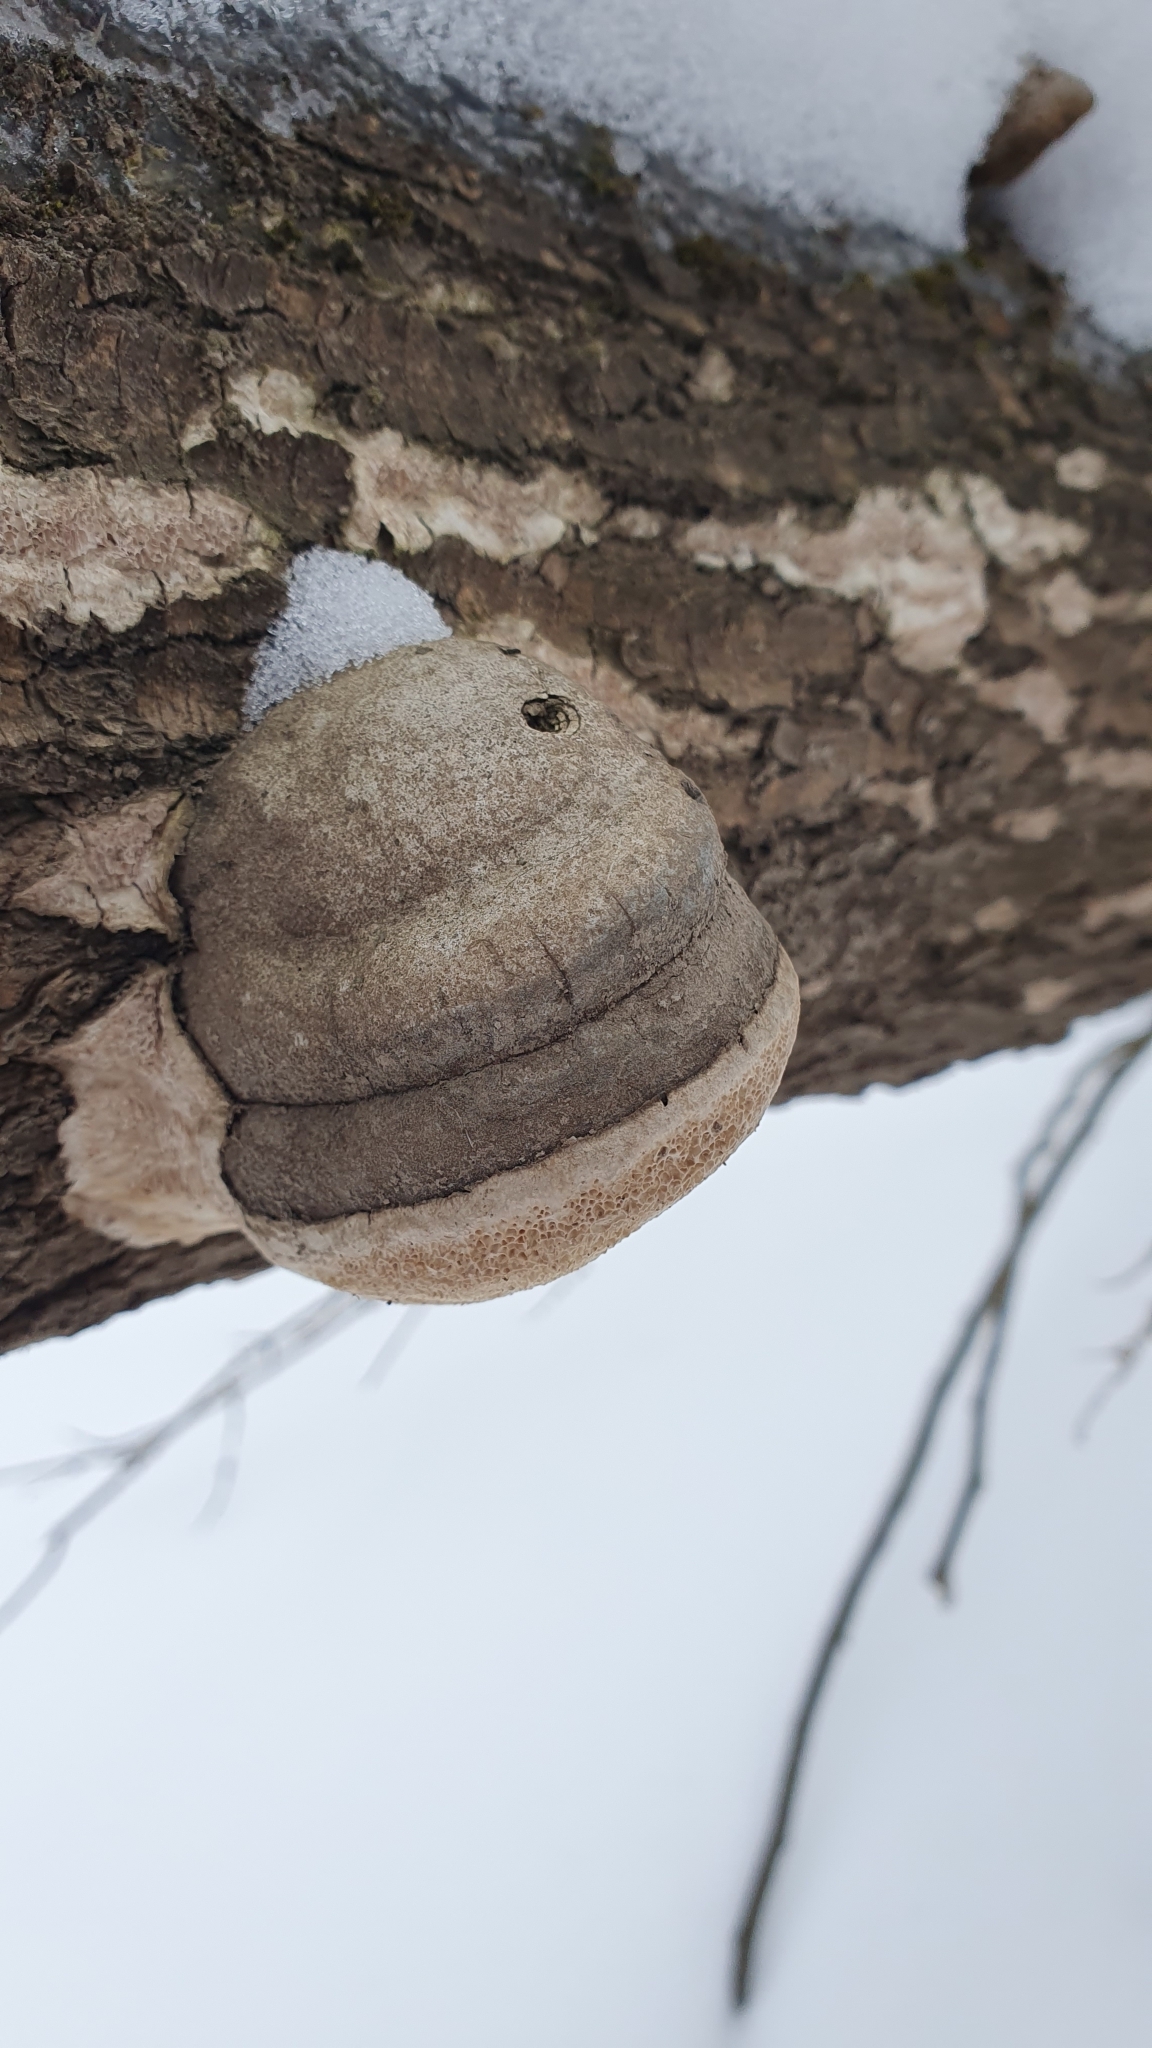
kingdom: Fungi
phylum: Basidiomycota
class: Agaricomycetes
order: Polyporales
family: Polyporaceae
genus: Fomes
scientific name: Fomes fomentarius
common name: Hoof fungus
